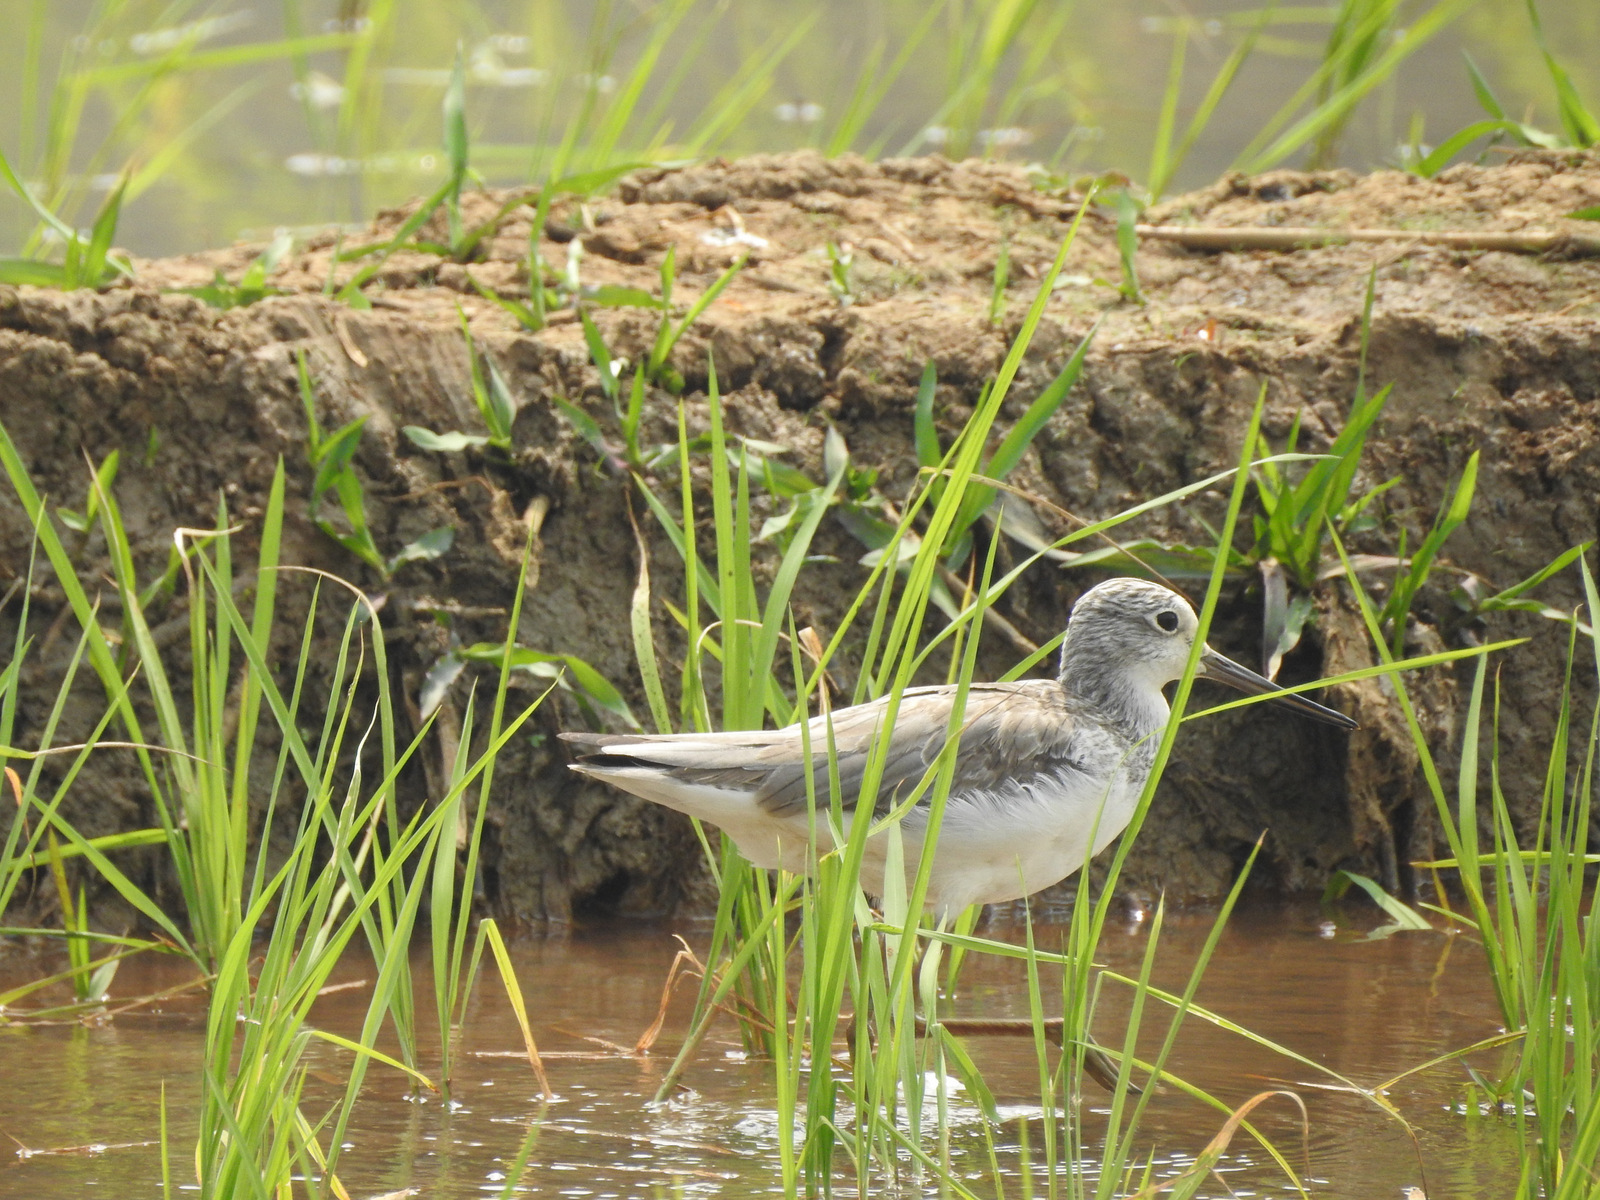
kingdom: Animalia
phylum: Chordata
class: Aves
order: Charadriiformes
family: Scolopacidae
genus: Tringa
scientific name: Tringa nebularia
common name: Common greenshank
